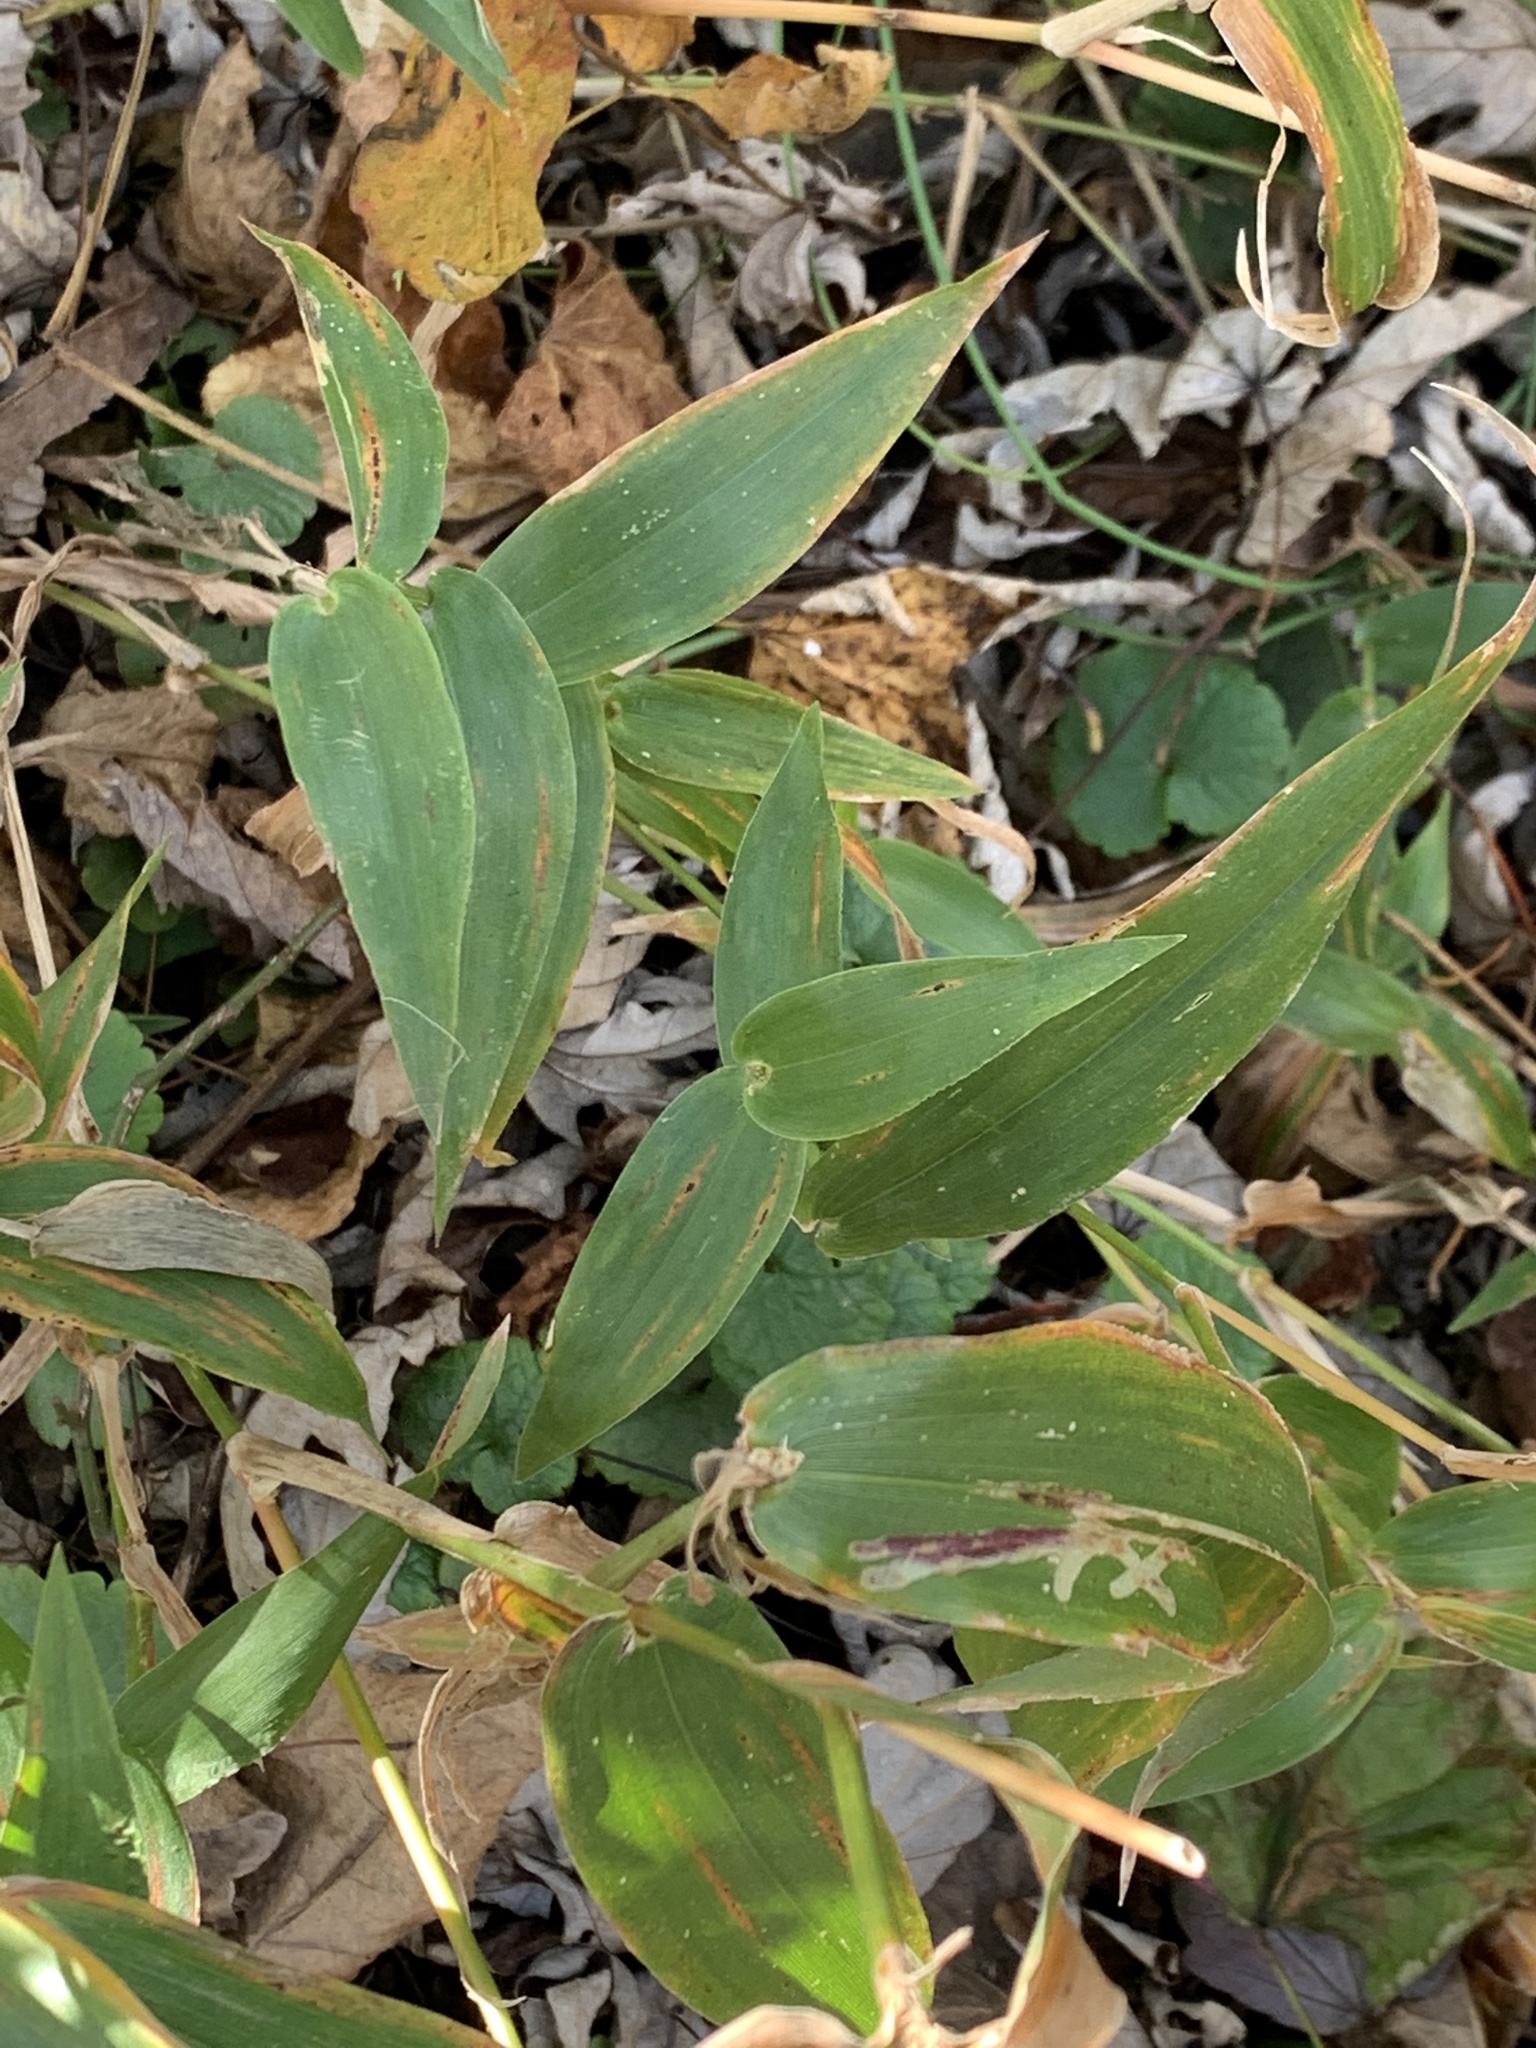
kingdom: Plantae
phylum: Tracheophyta
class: Liliopsida
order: Poales
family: Poaceae
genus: Dichanthelium
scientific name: Dichanthelium clandestinum
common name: Deer-tongue grass
